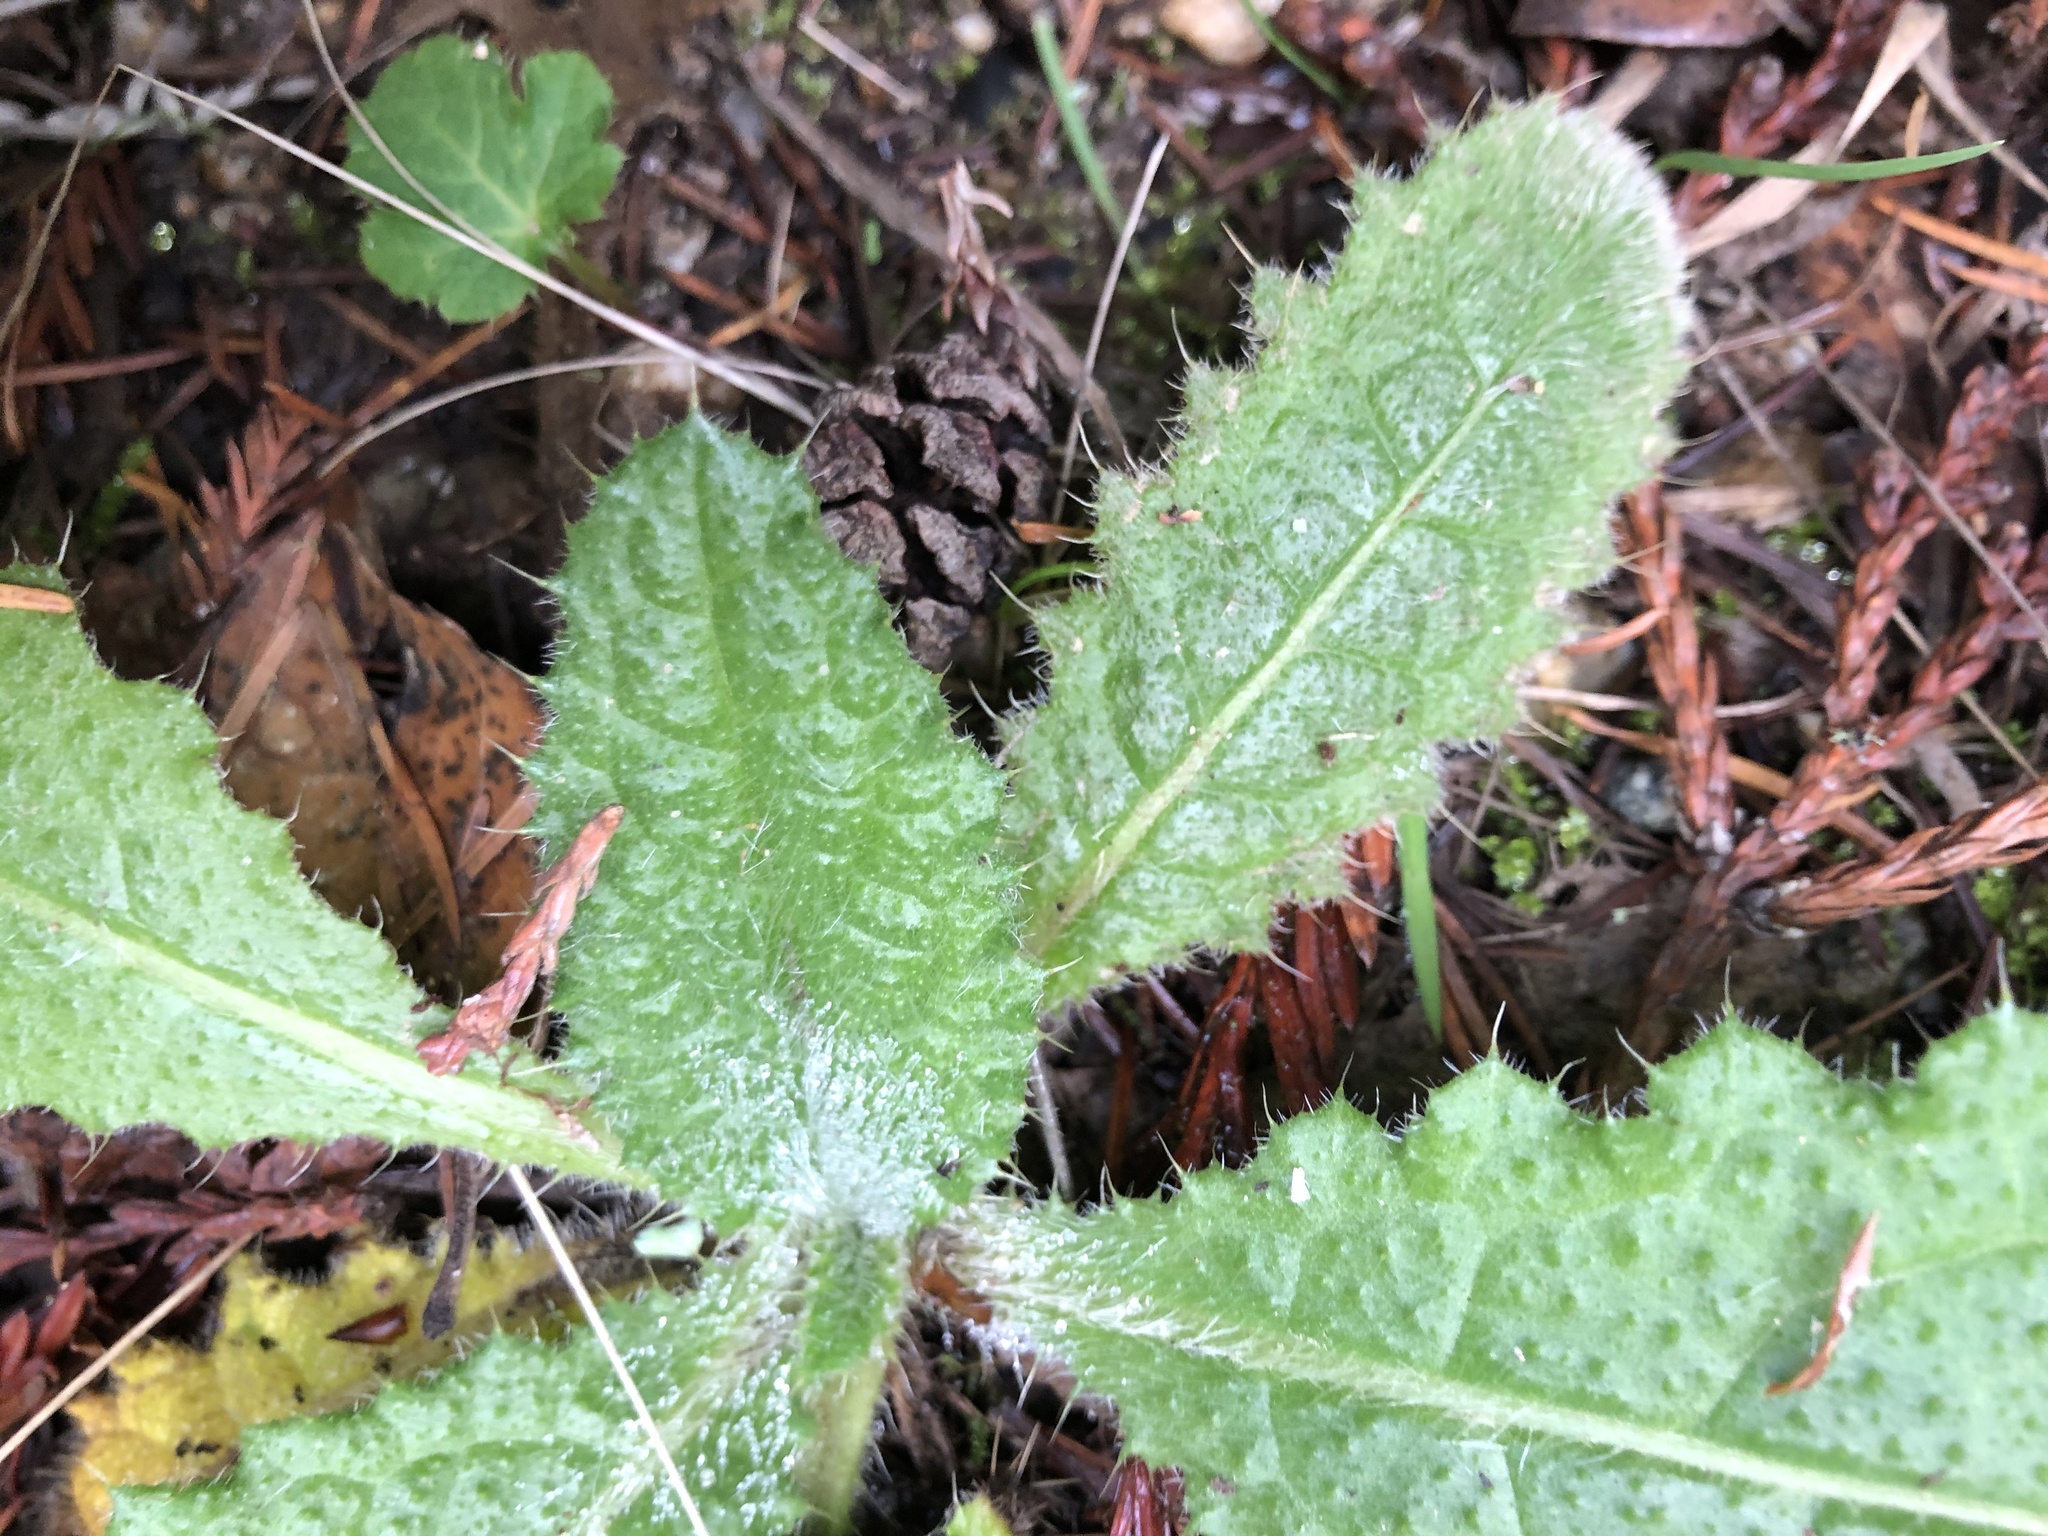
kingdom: Plantae
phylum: Tracheophyta
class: Magnoliopsida
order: Asterales
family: Asteraceae
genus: Cirsium
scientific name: Cirsium vulgare
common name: Bull thistle
